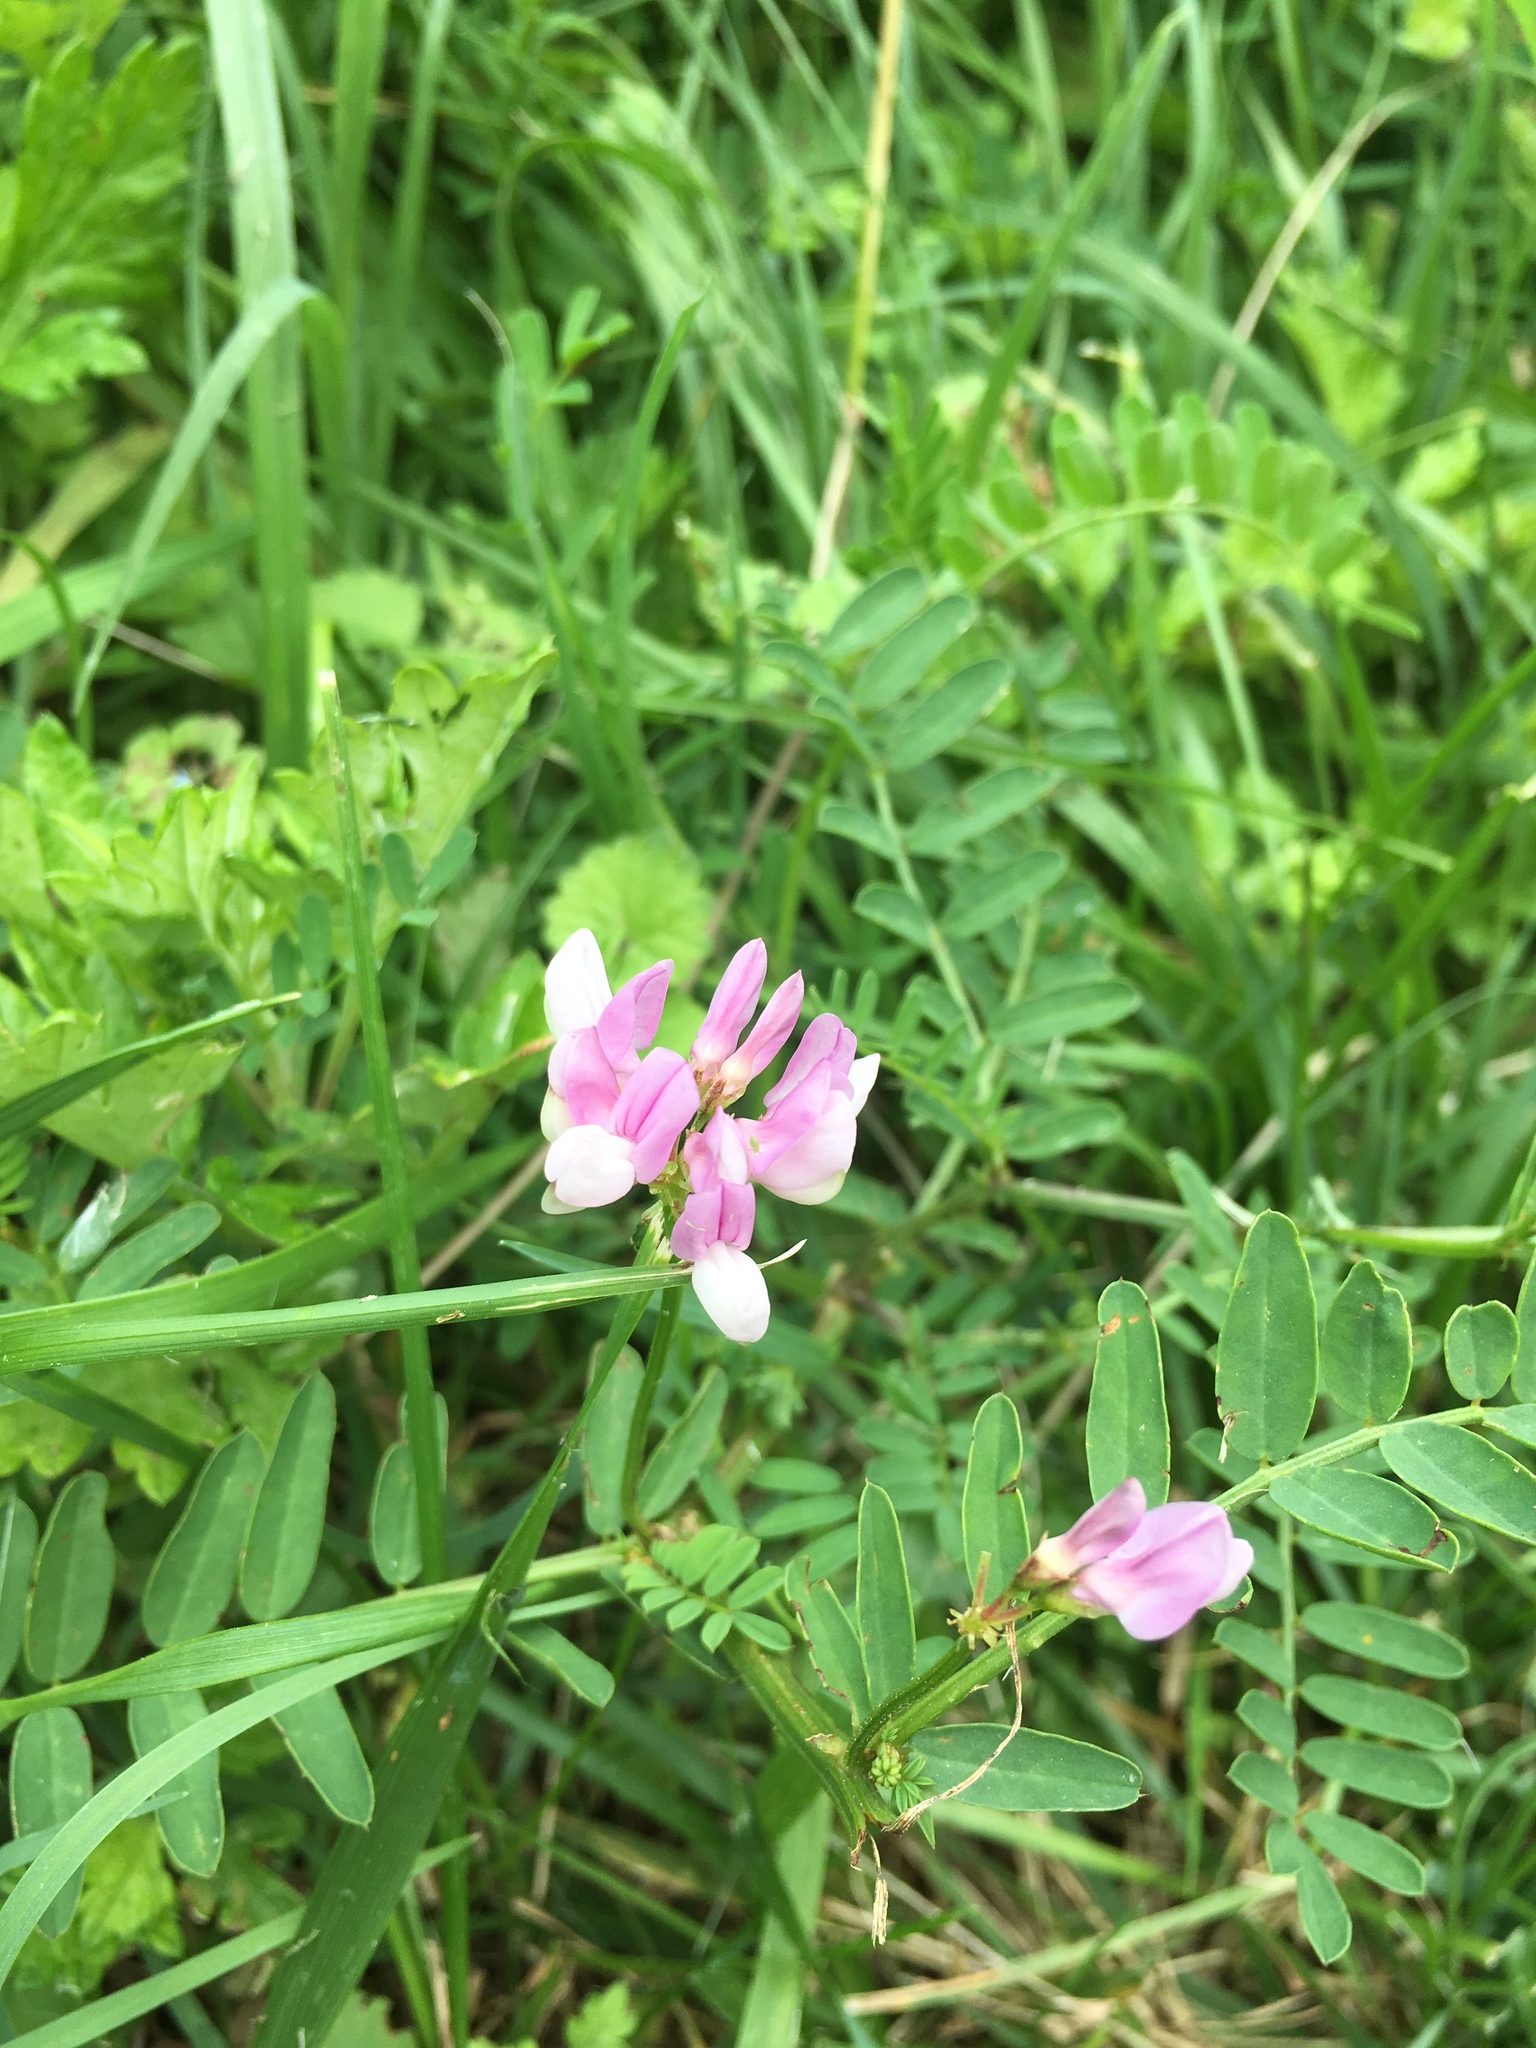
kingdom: Plantae
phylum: Tracheophyta
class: Magnoliopsida
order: Fabales
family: Fabaceae
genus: Coronilla
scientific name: Coronilla varia
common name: Crownvetch
